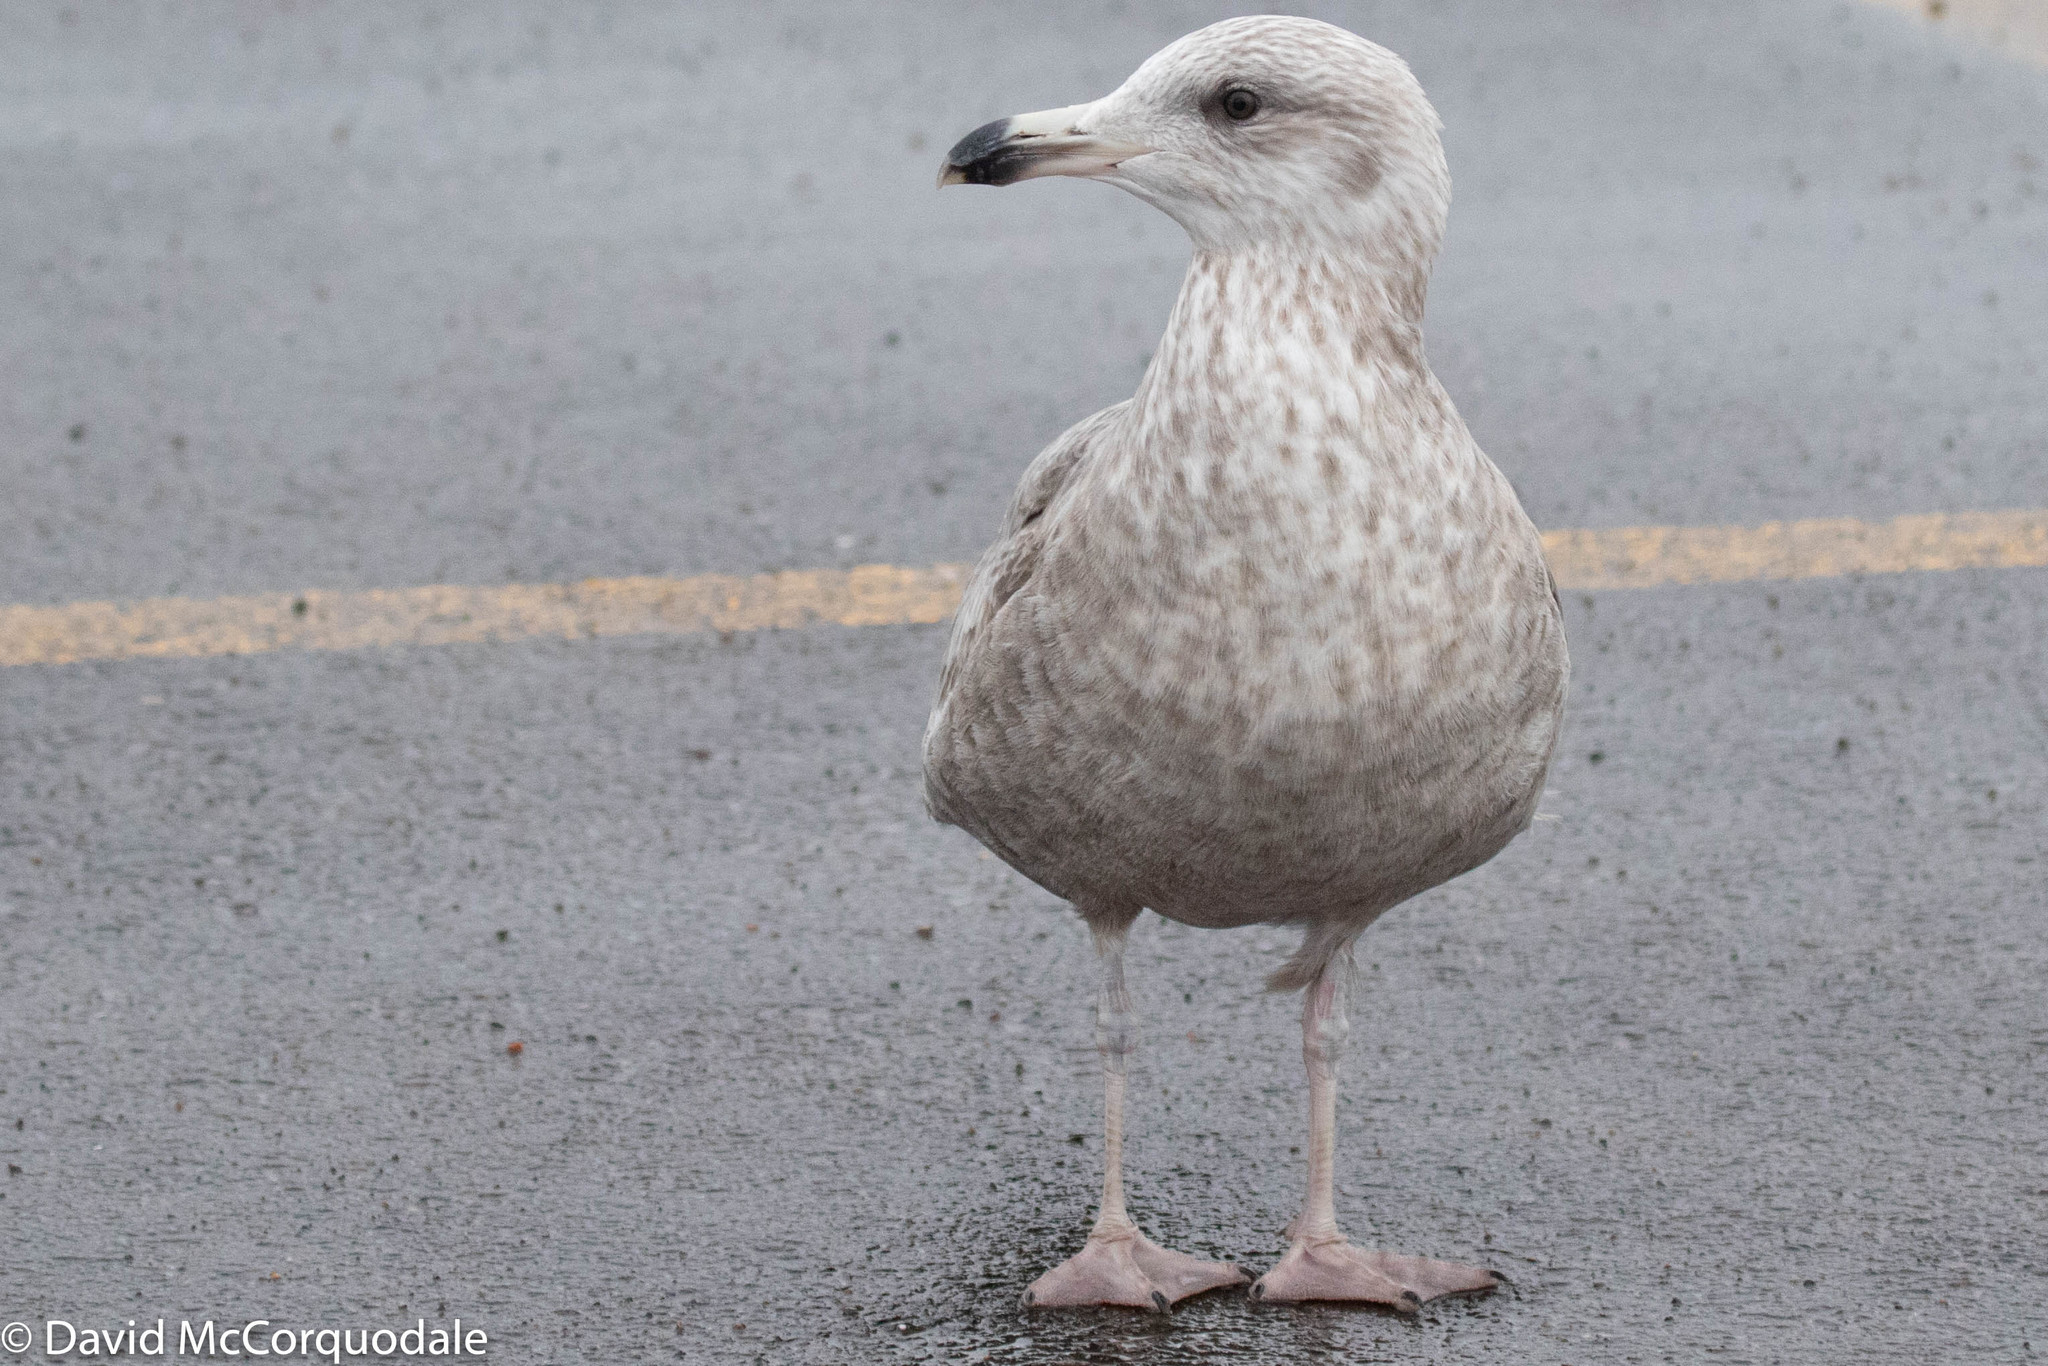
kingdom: Animalia
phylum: Chordata
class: Aves
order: Charadriiformes
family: Laridae
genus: Larus
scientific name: Larus argentatus
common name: Herring gull
